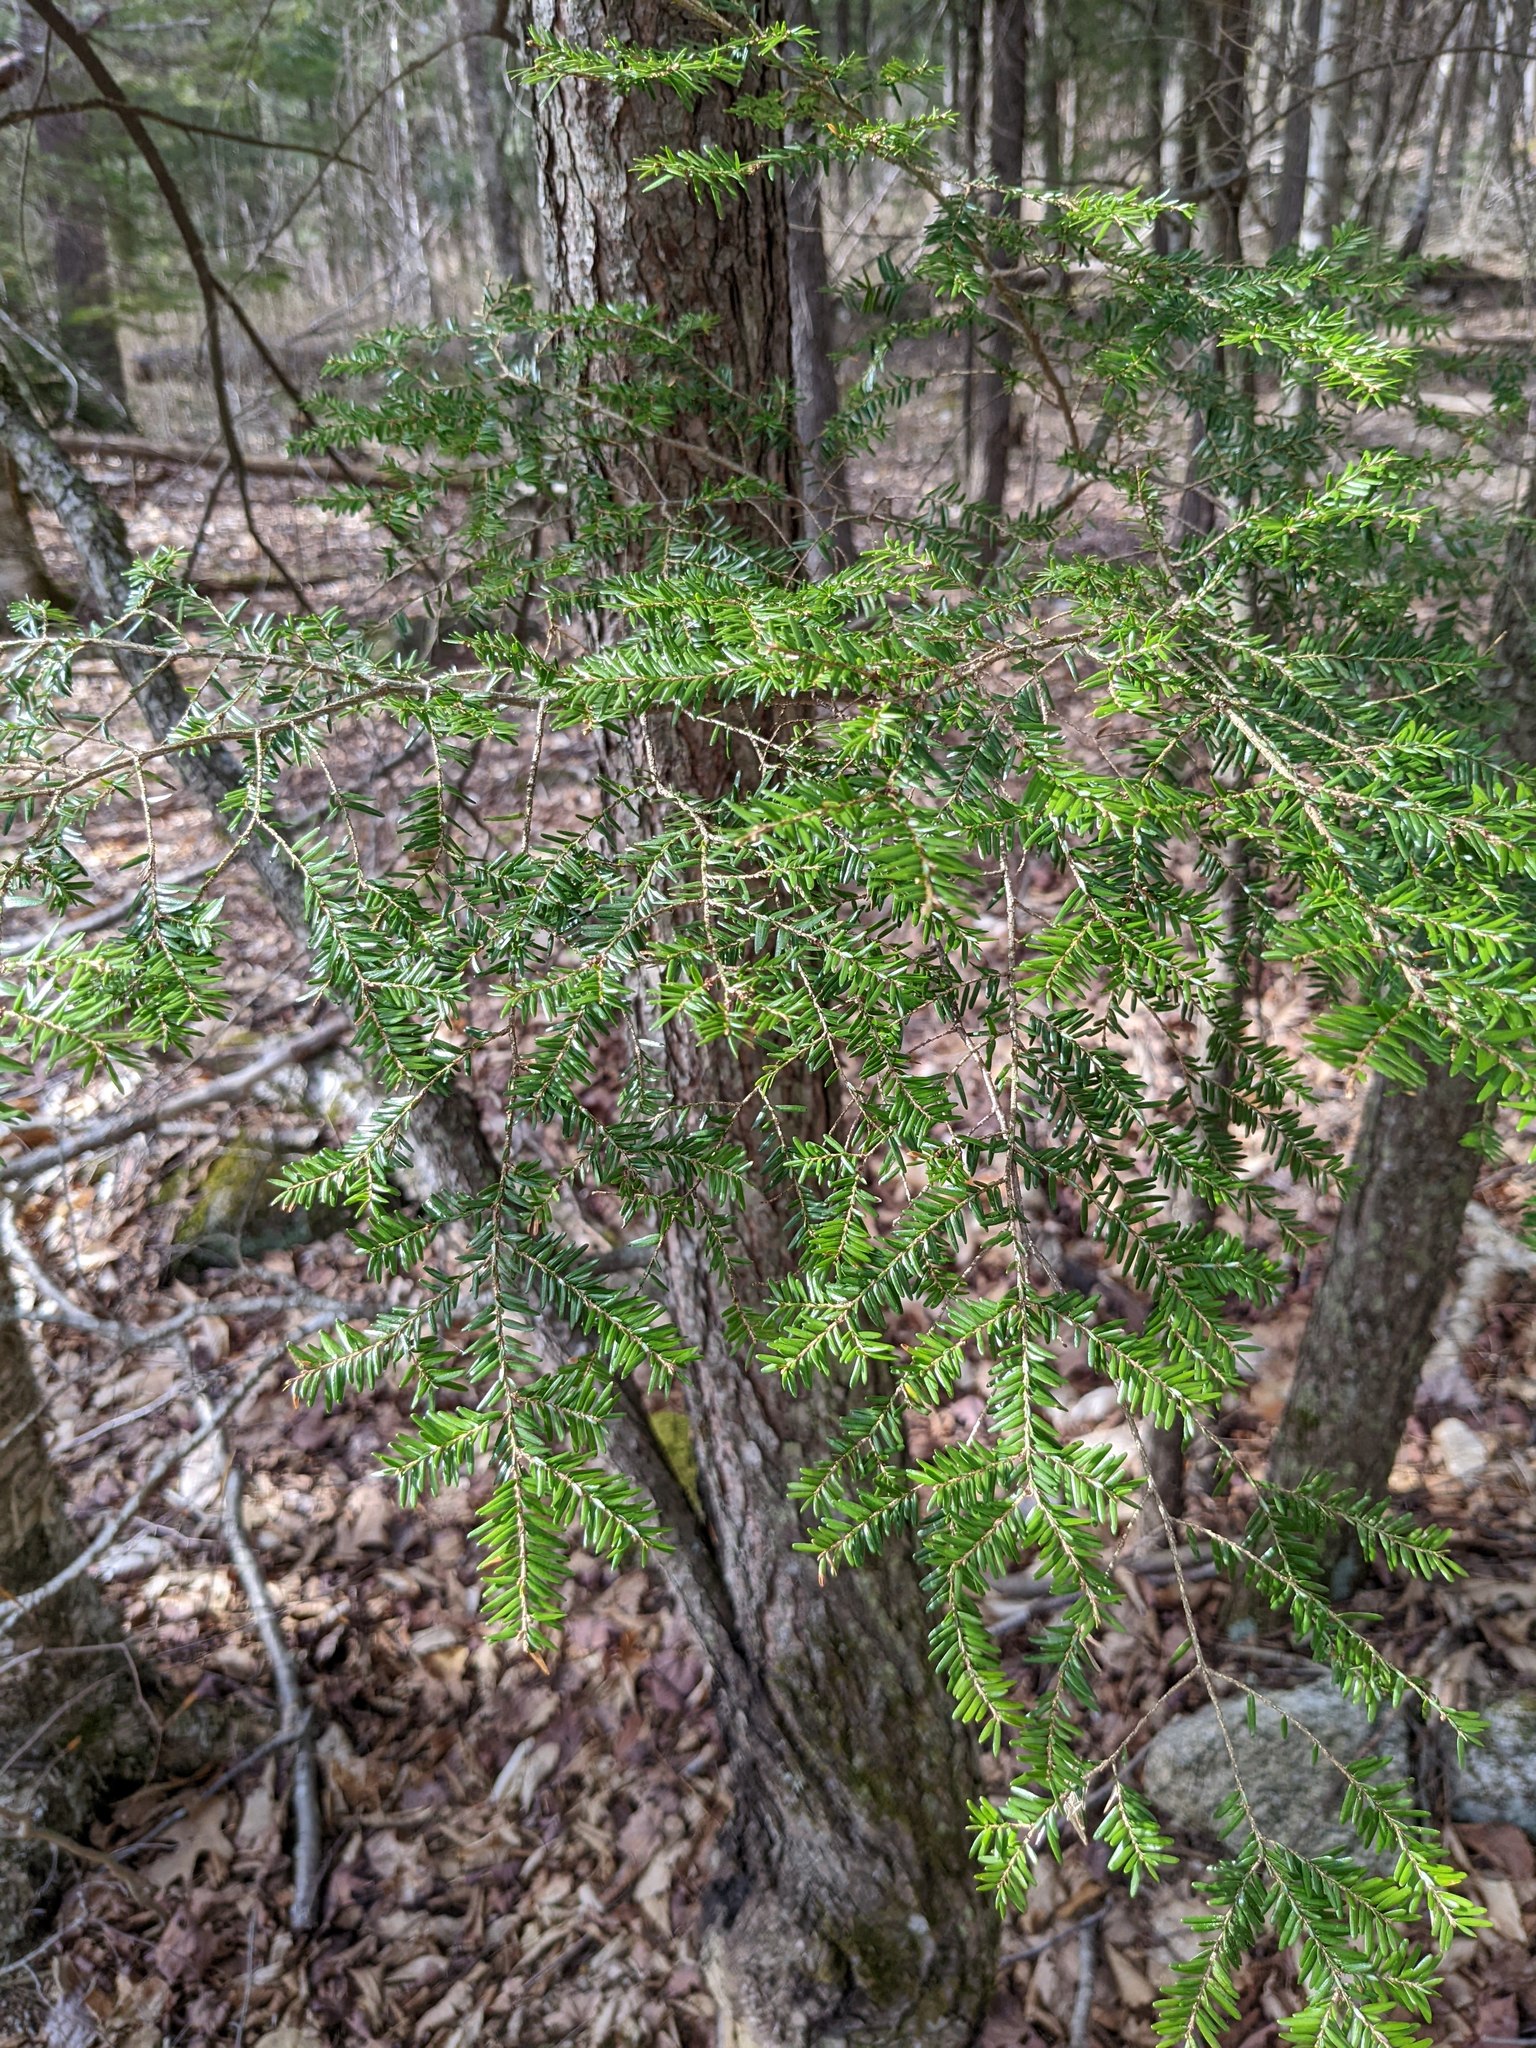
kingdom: Plantae
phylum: Tracheophyta
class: Pinopsida
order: Pinales
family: Pinaceae
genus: Tsuga
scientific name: Tsuga canadensis
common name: Eastern hemlock
